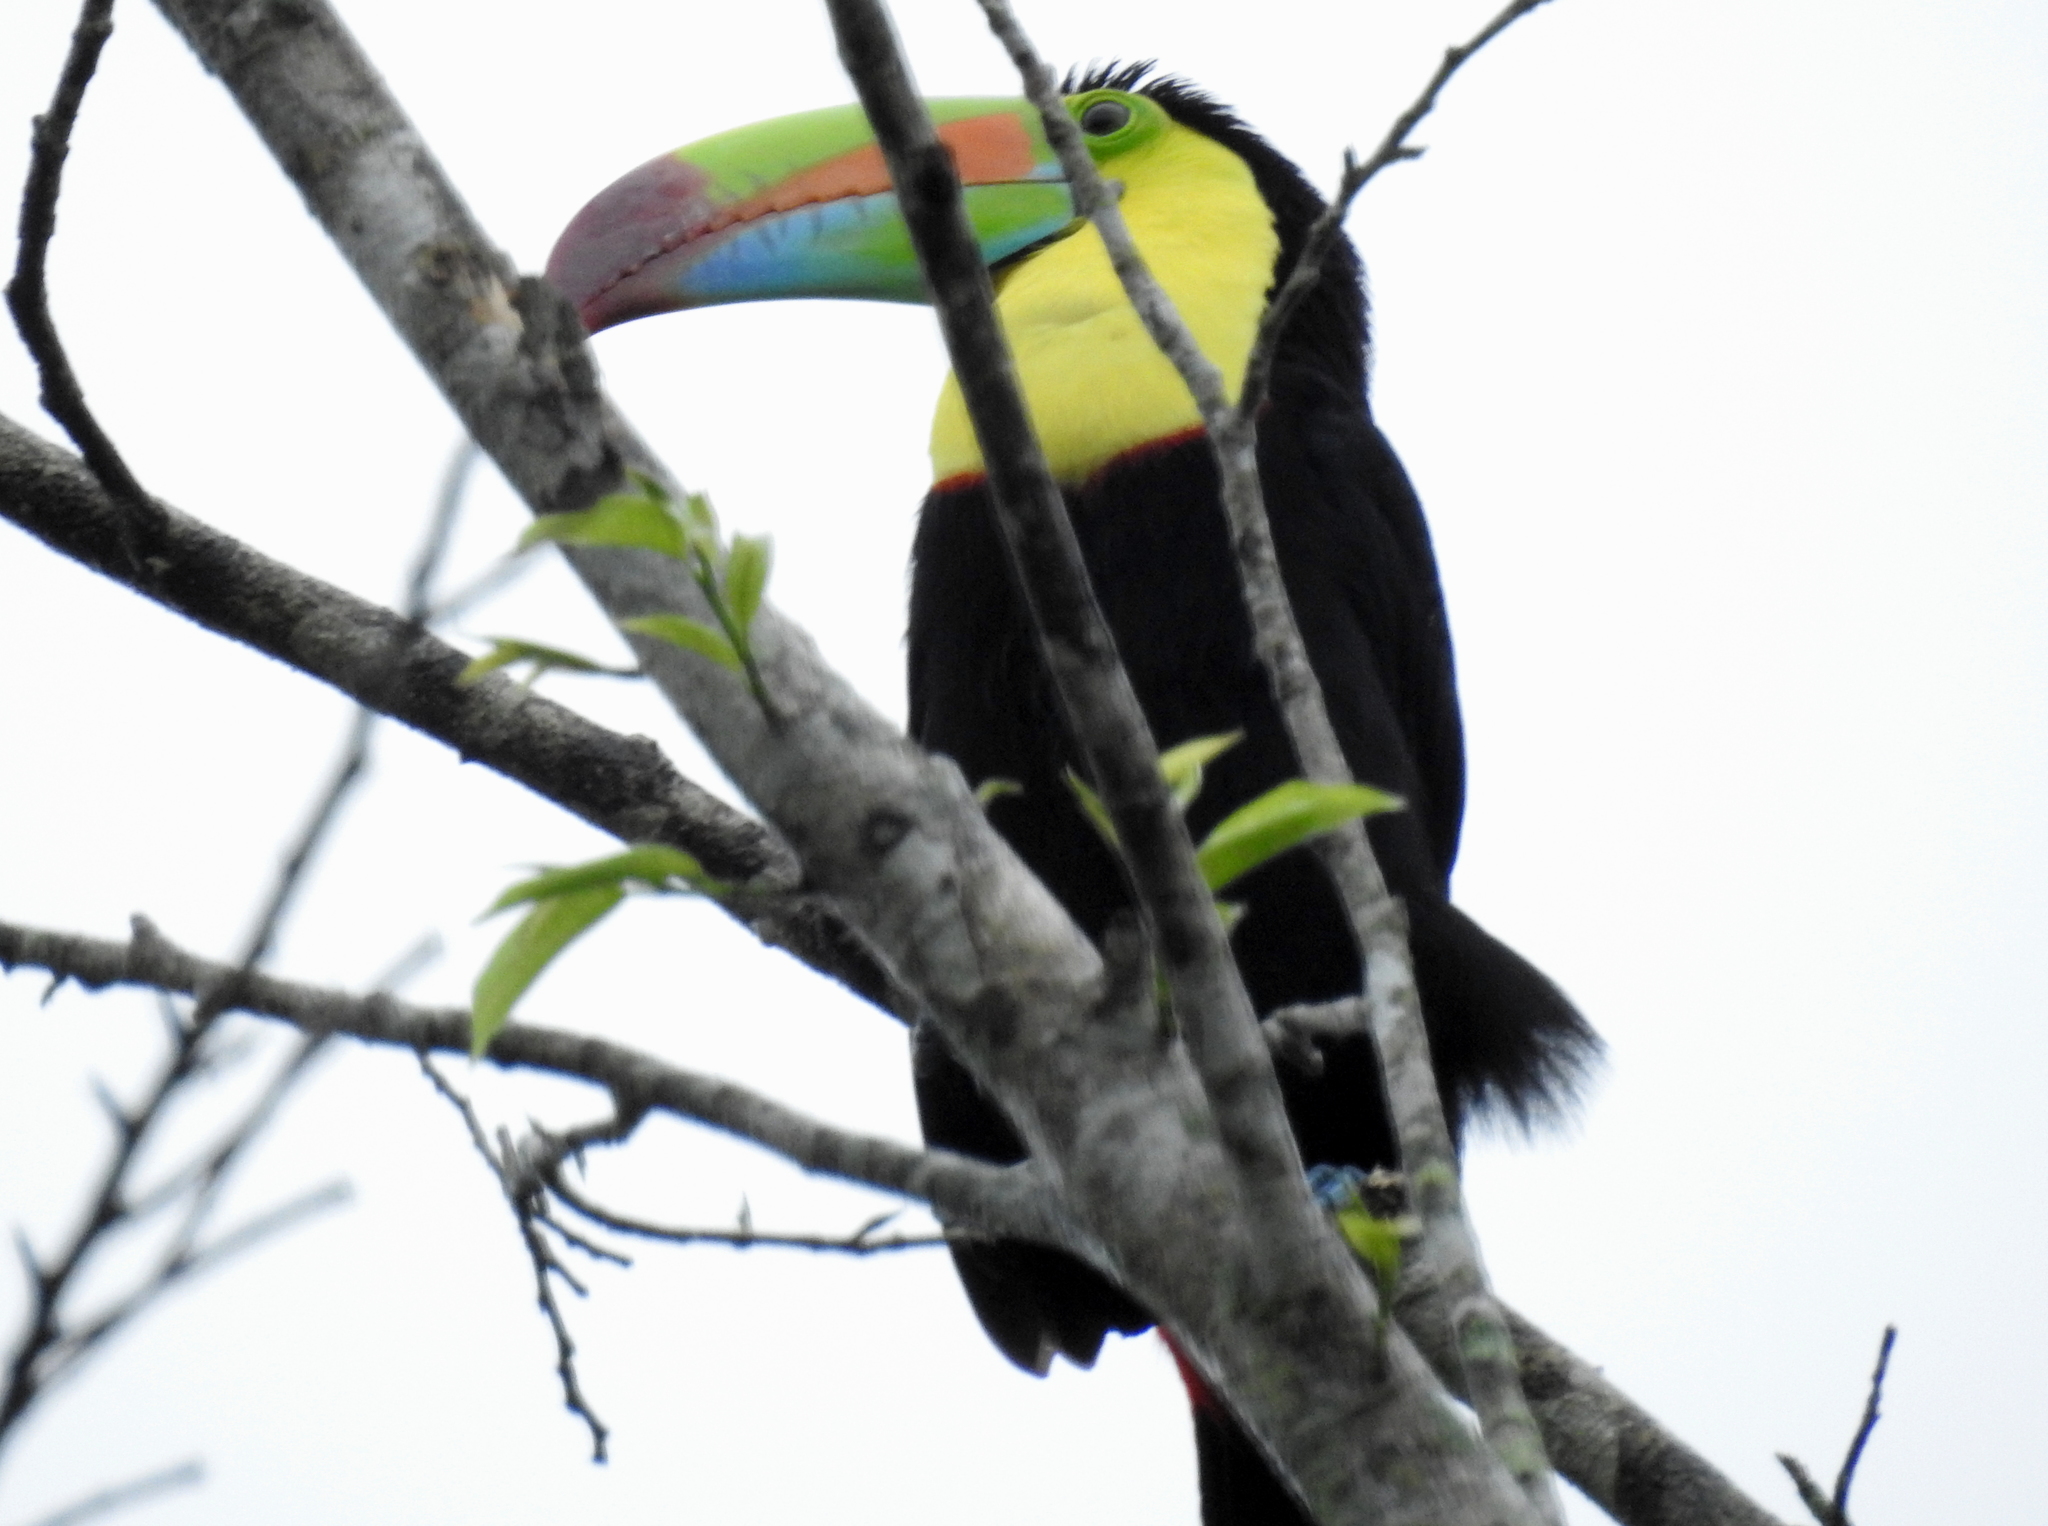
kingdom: Animalia
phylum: Chordata
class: Aves
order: Piciformes
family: Ramphastidae
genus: Ramphastos
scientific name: Ramphastos sulfuratus
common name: Keel-billed toucan
